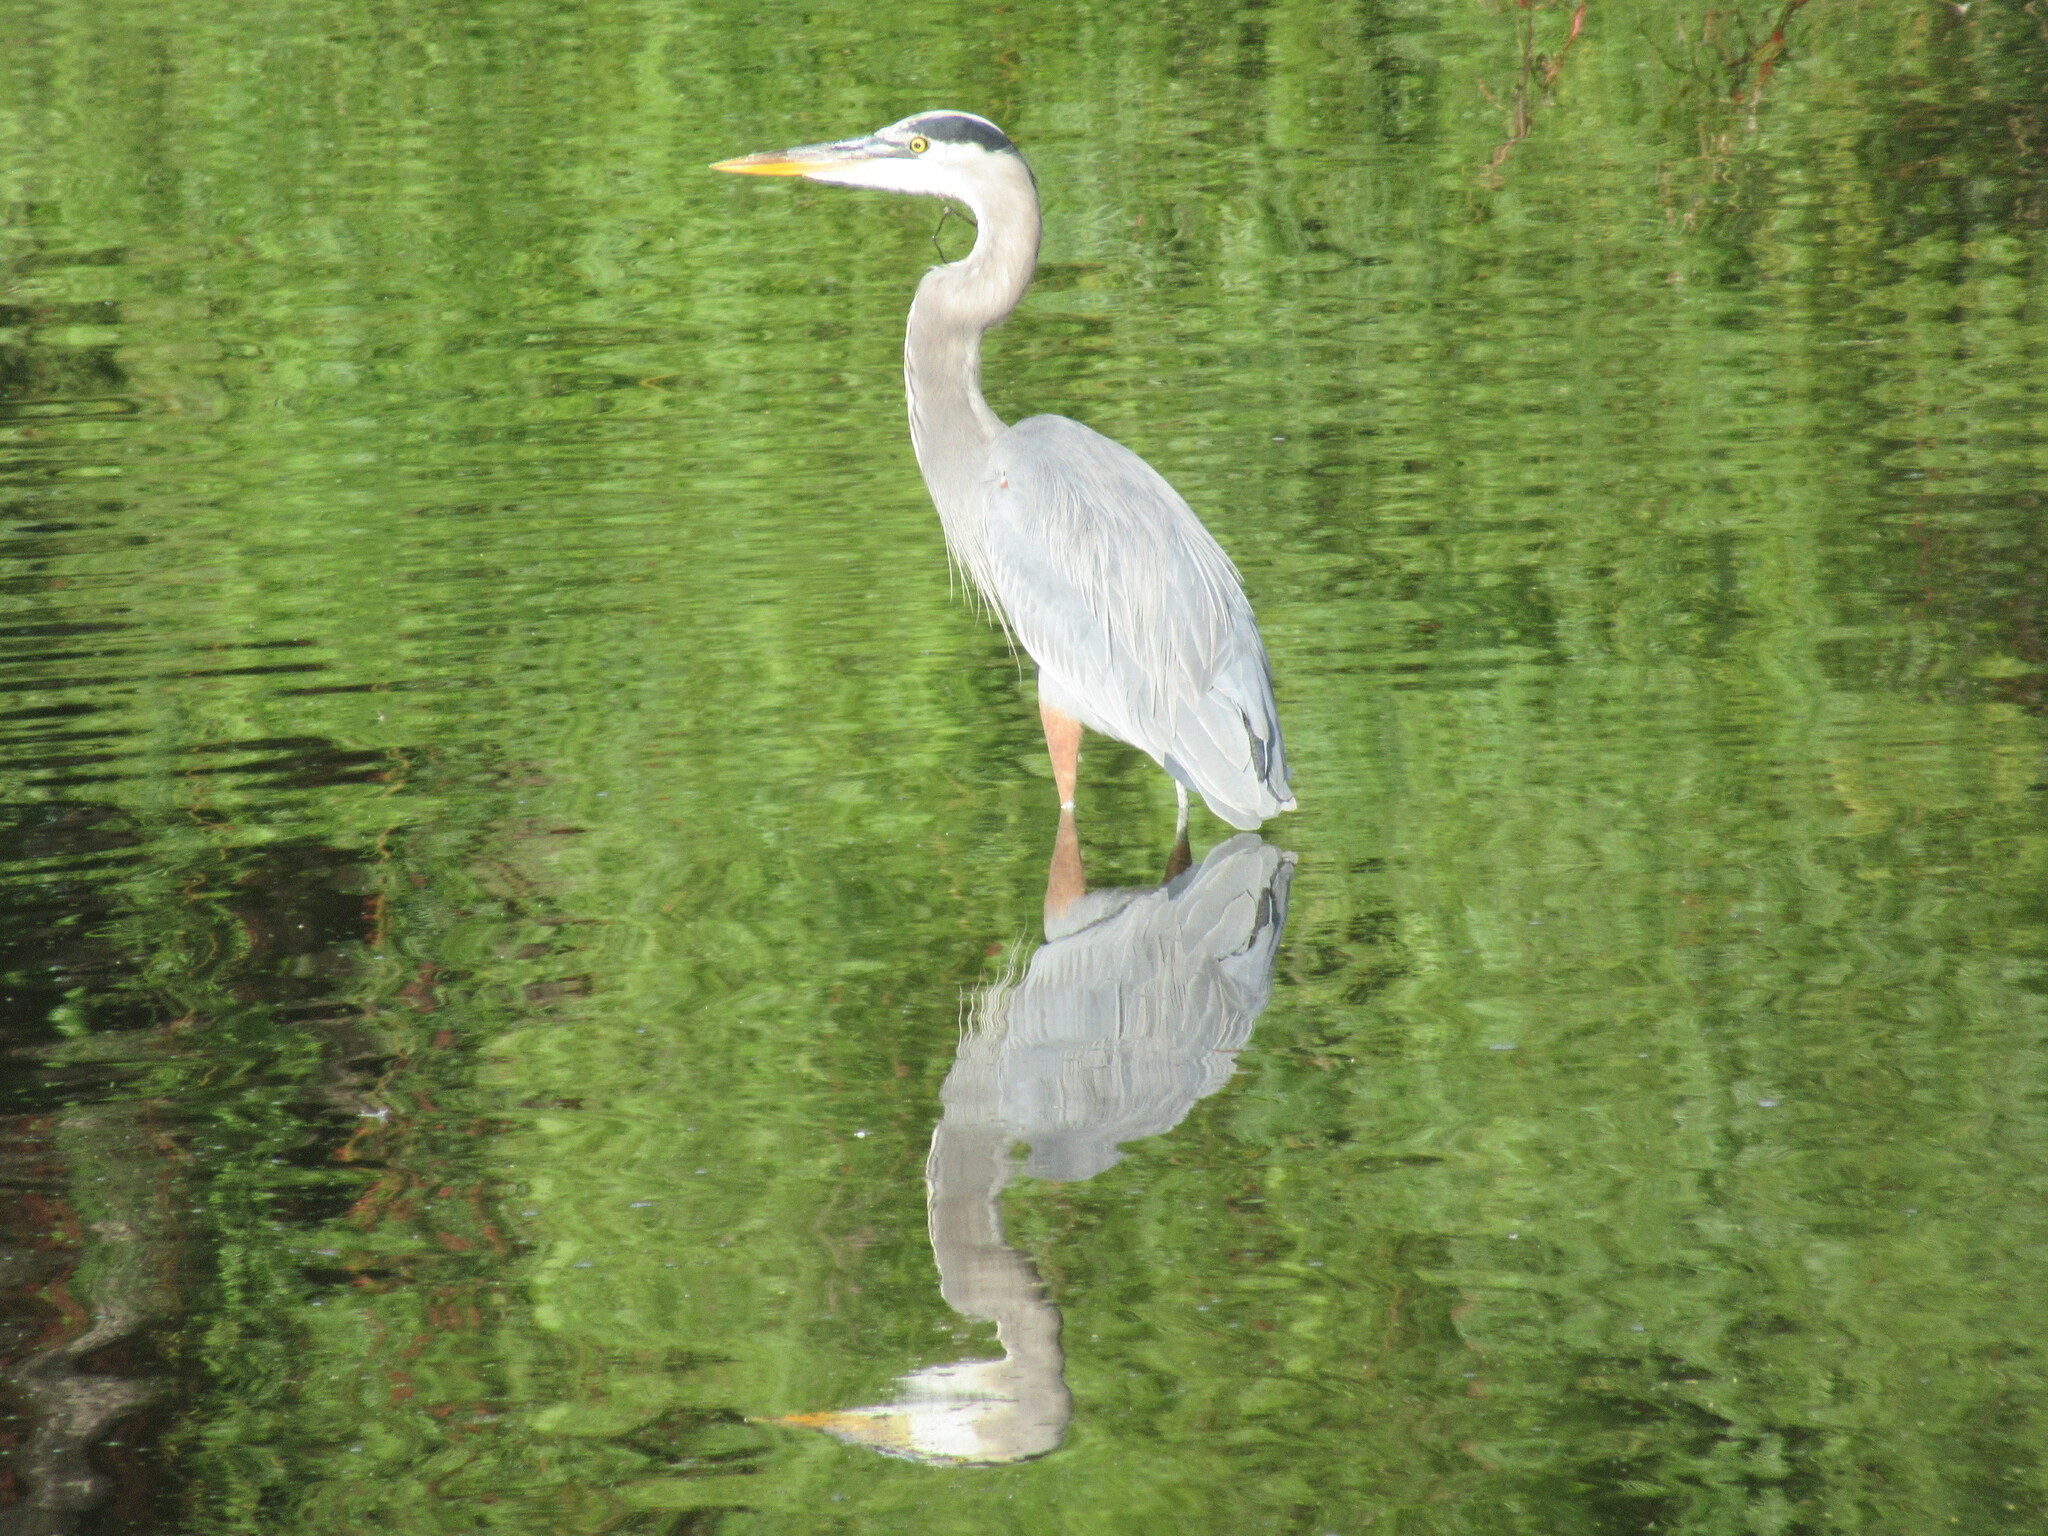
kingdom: Animalia
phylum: Chordata
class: Aves
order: Pelecaniformes
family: Ardeidae
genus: Ardea
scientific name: Ardea herodias
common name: Great blue heron
